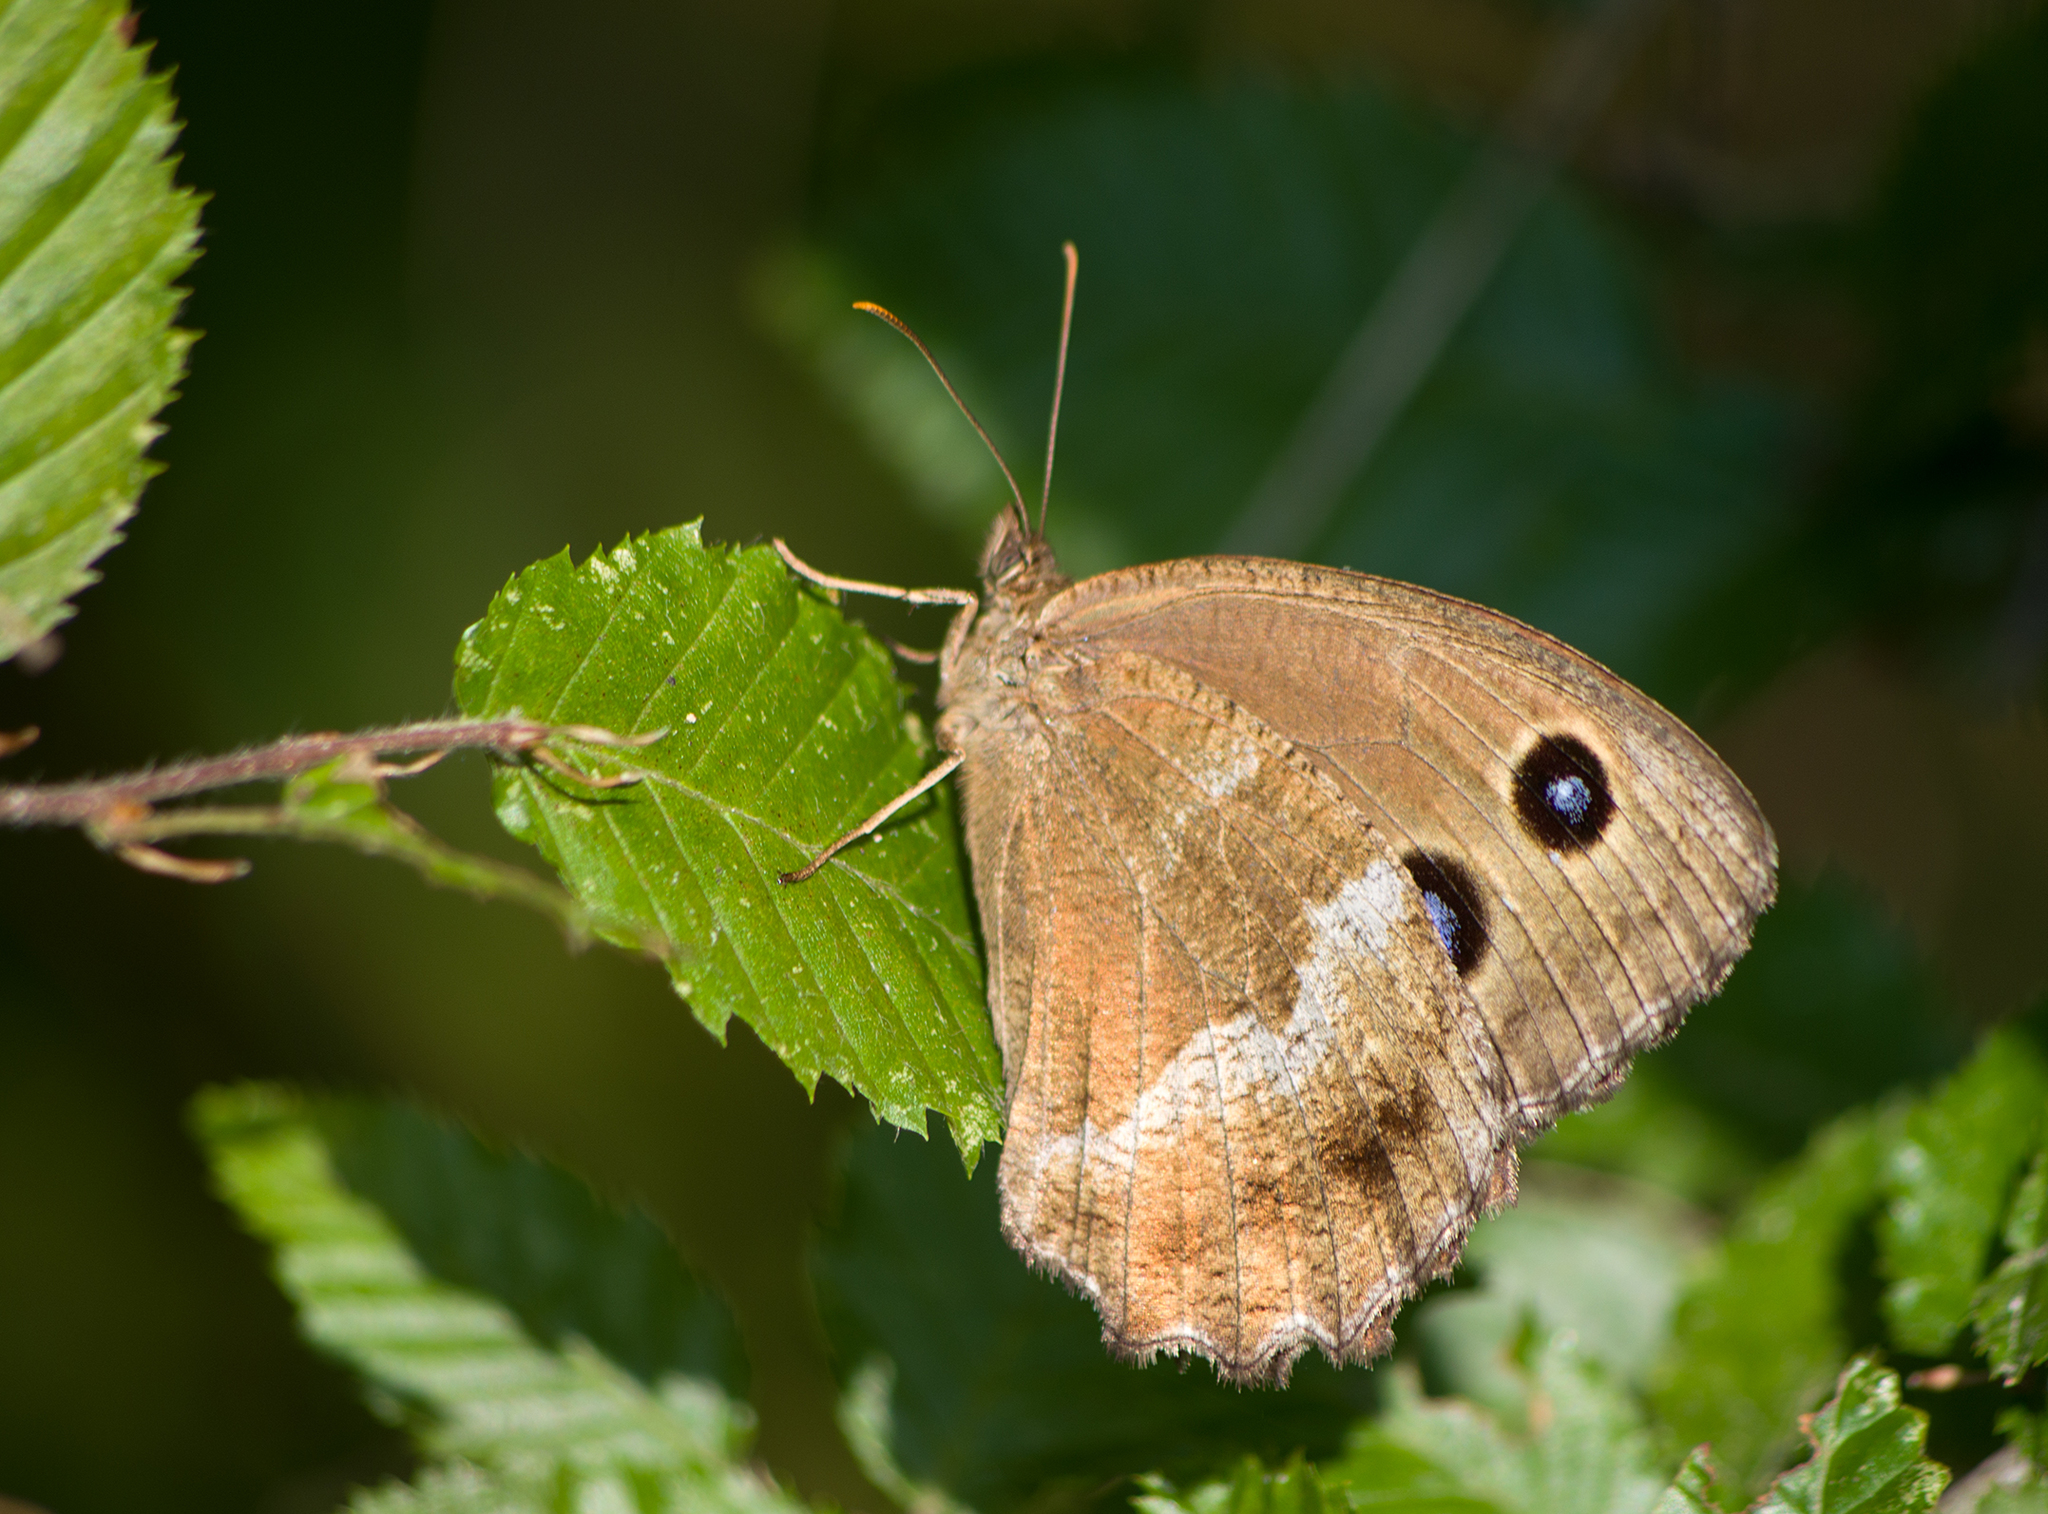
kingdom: Animalia
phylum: Arthropoda
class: Insecta
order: Lepidoptera
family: Nymphalidae
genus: Minois
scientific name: Minois dryas
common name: Dryad
